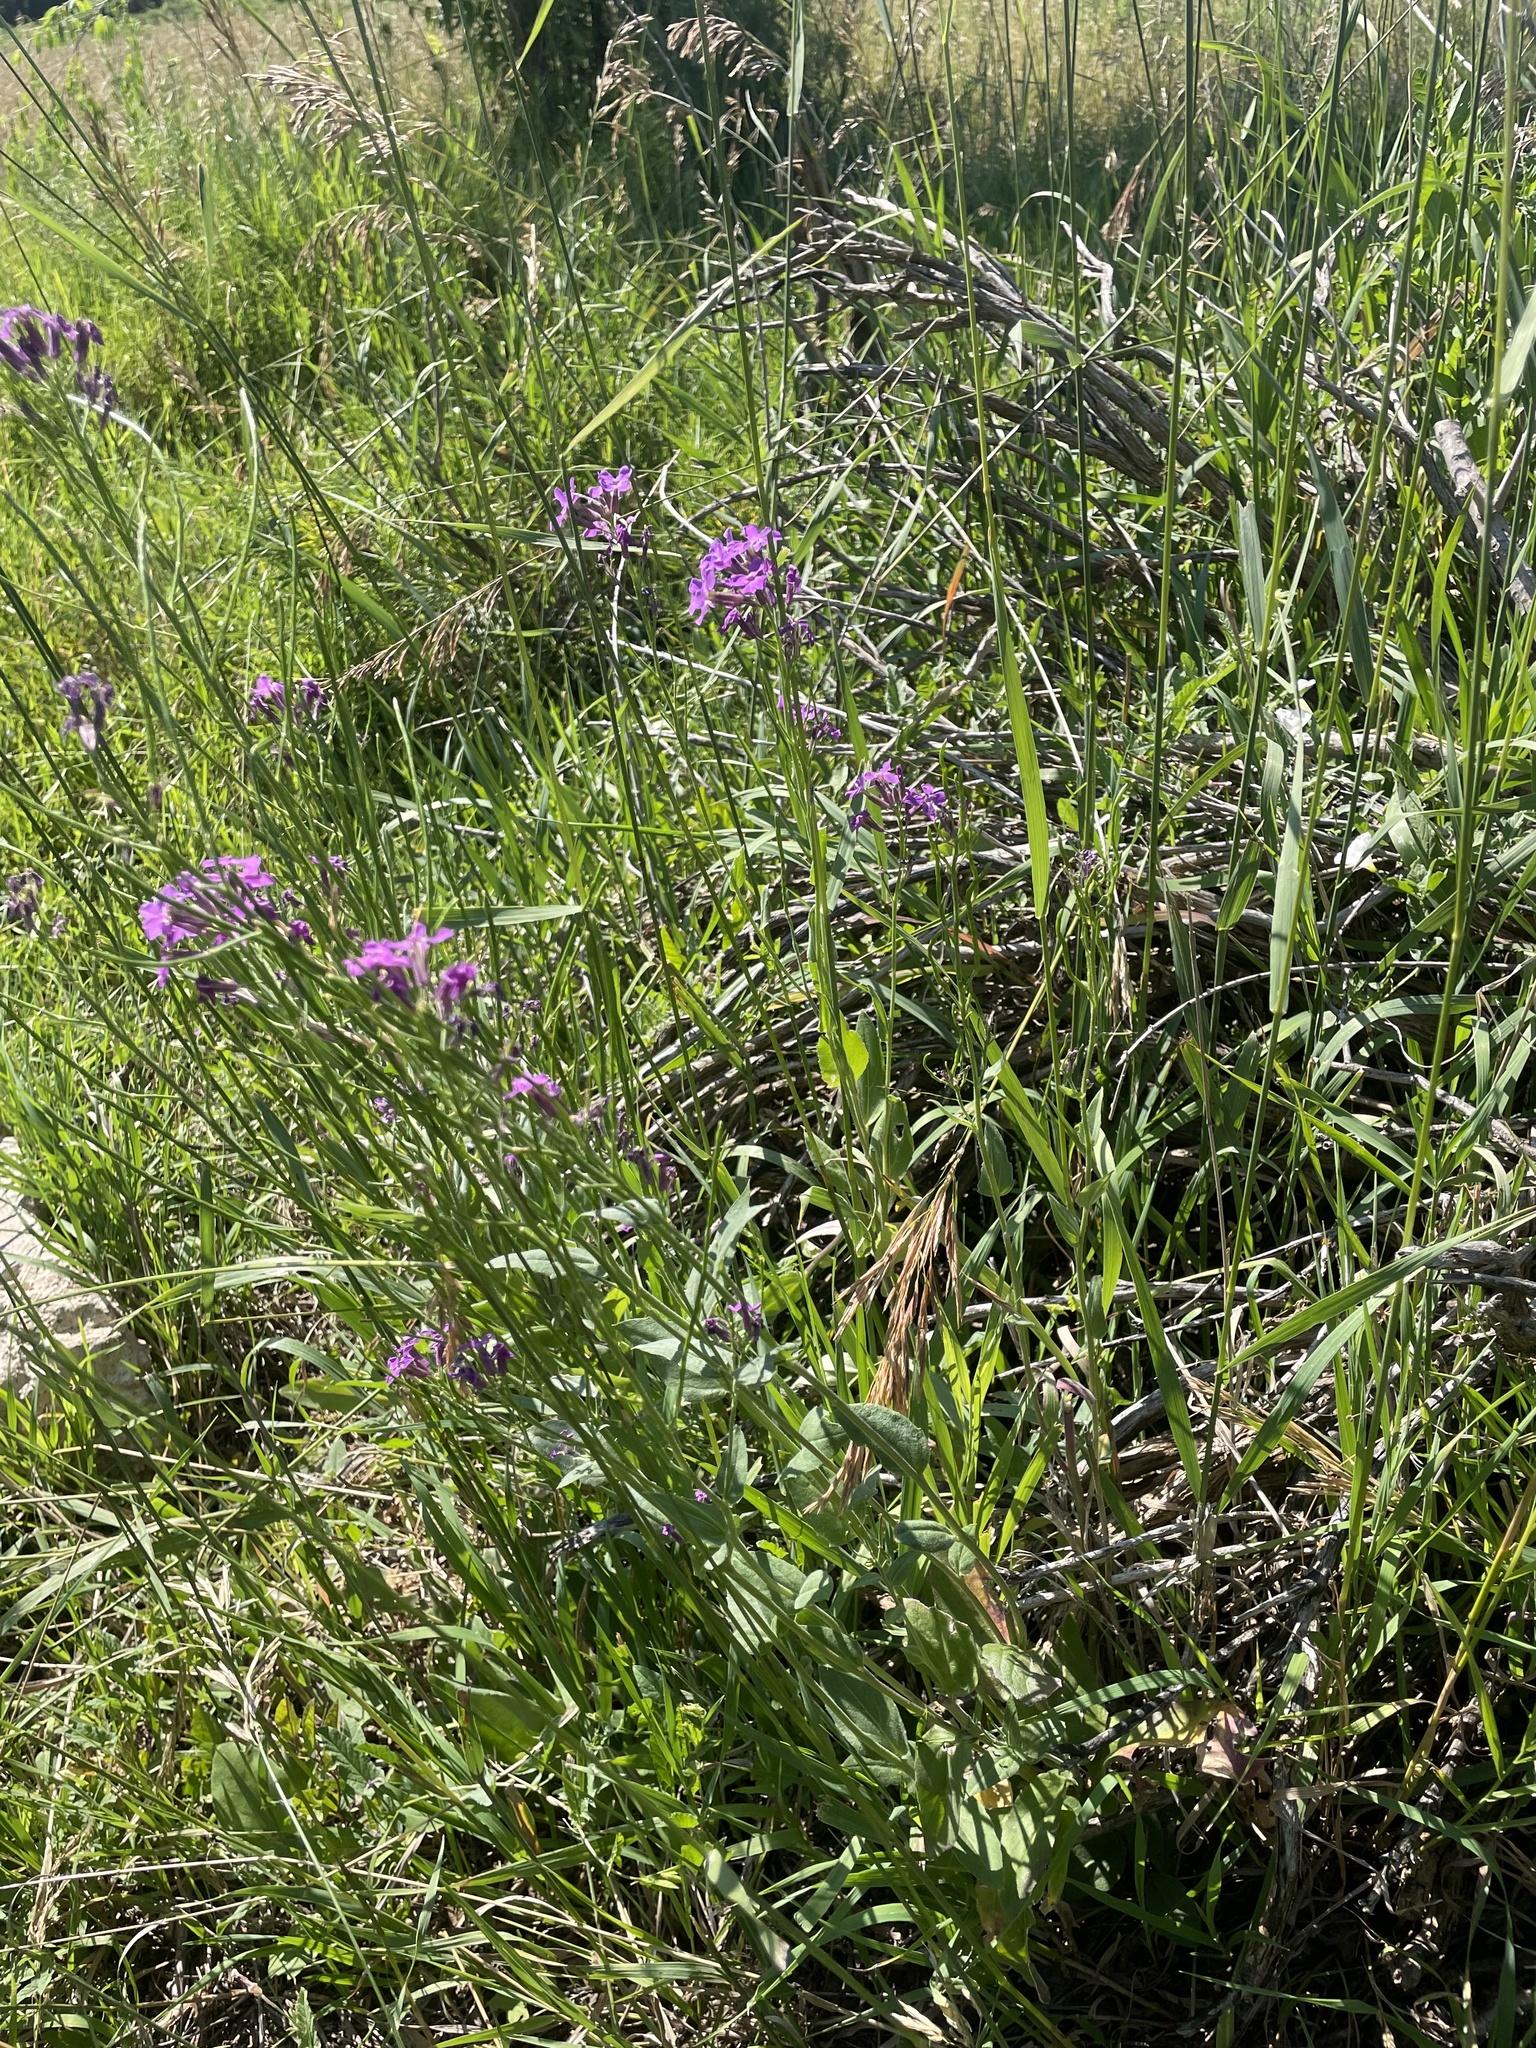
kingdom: Plantae
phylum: Tracheophyta
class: Magnoliopsida
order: Brassicales
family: Brassicaceae
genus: Hesperis
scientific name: Hesperis matronalis
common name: Dame's-violet
